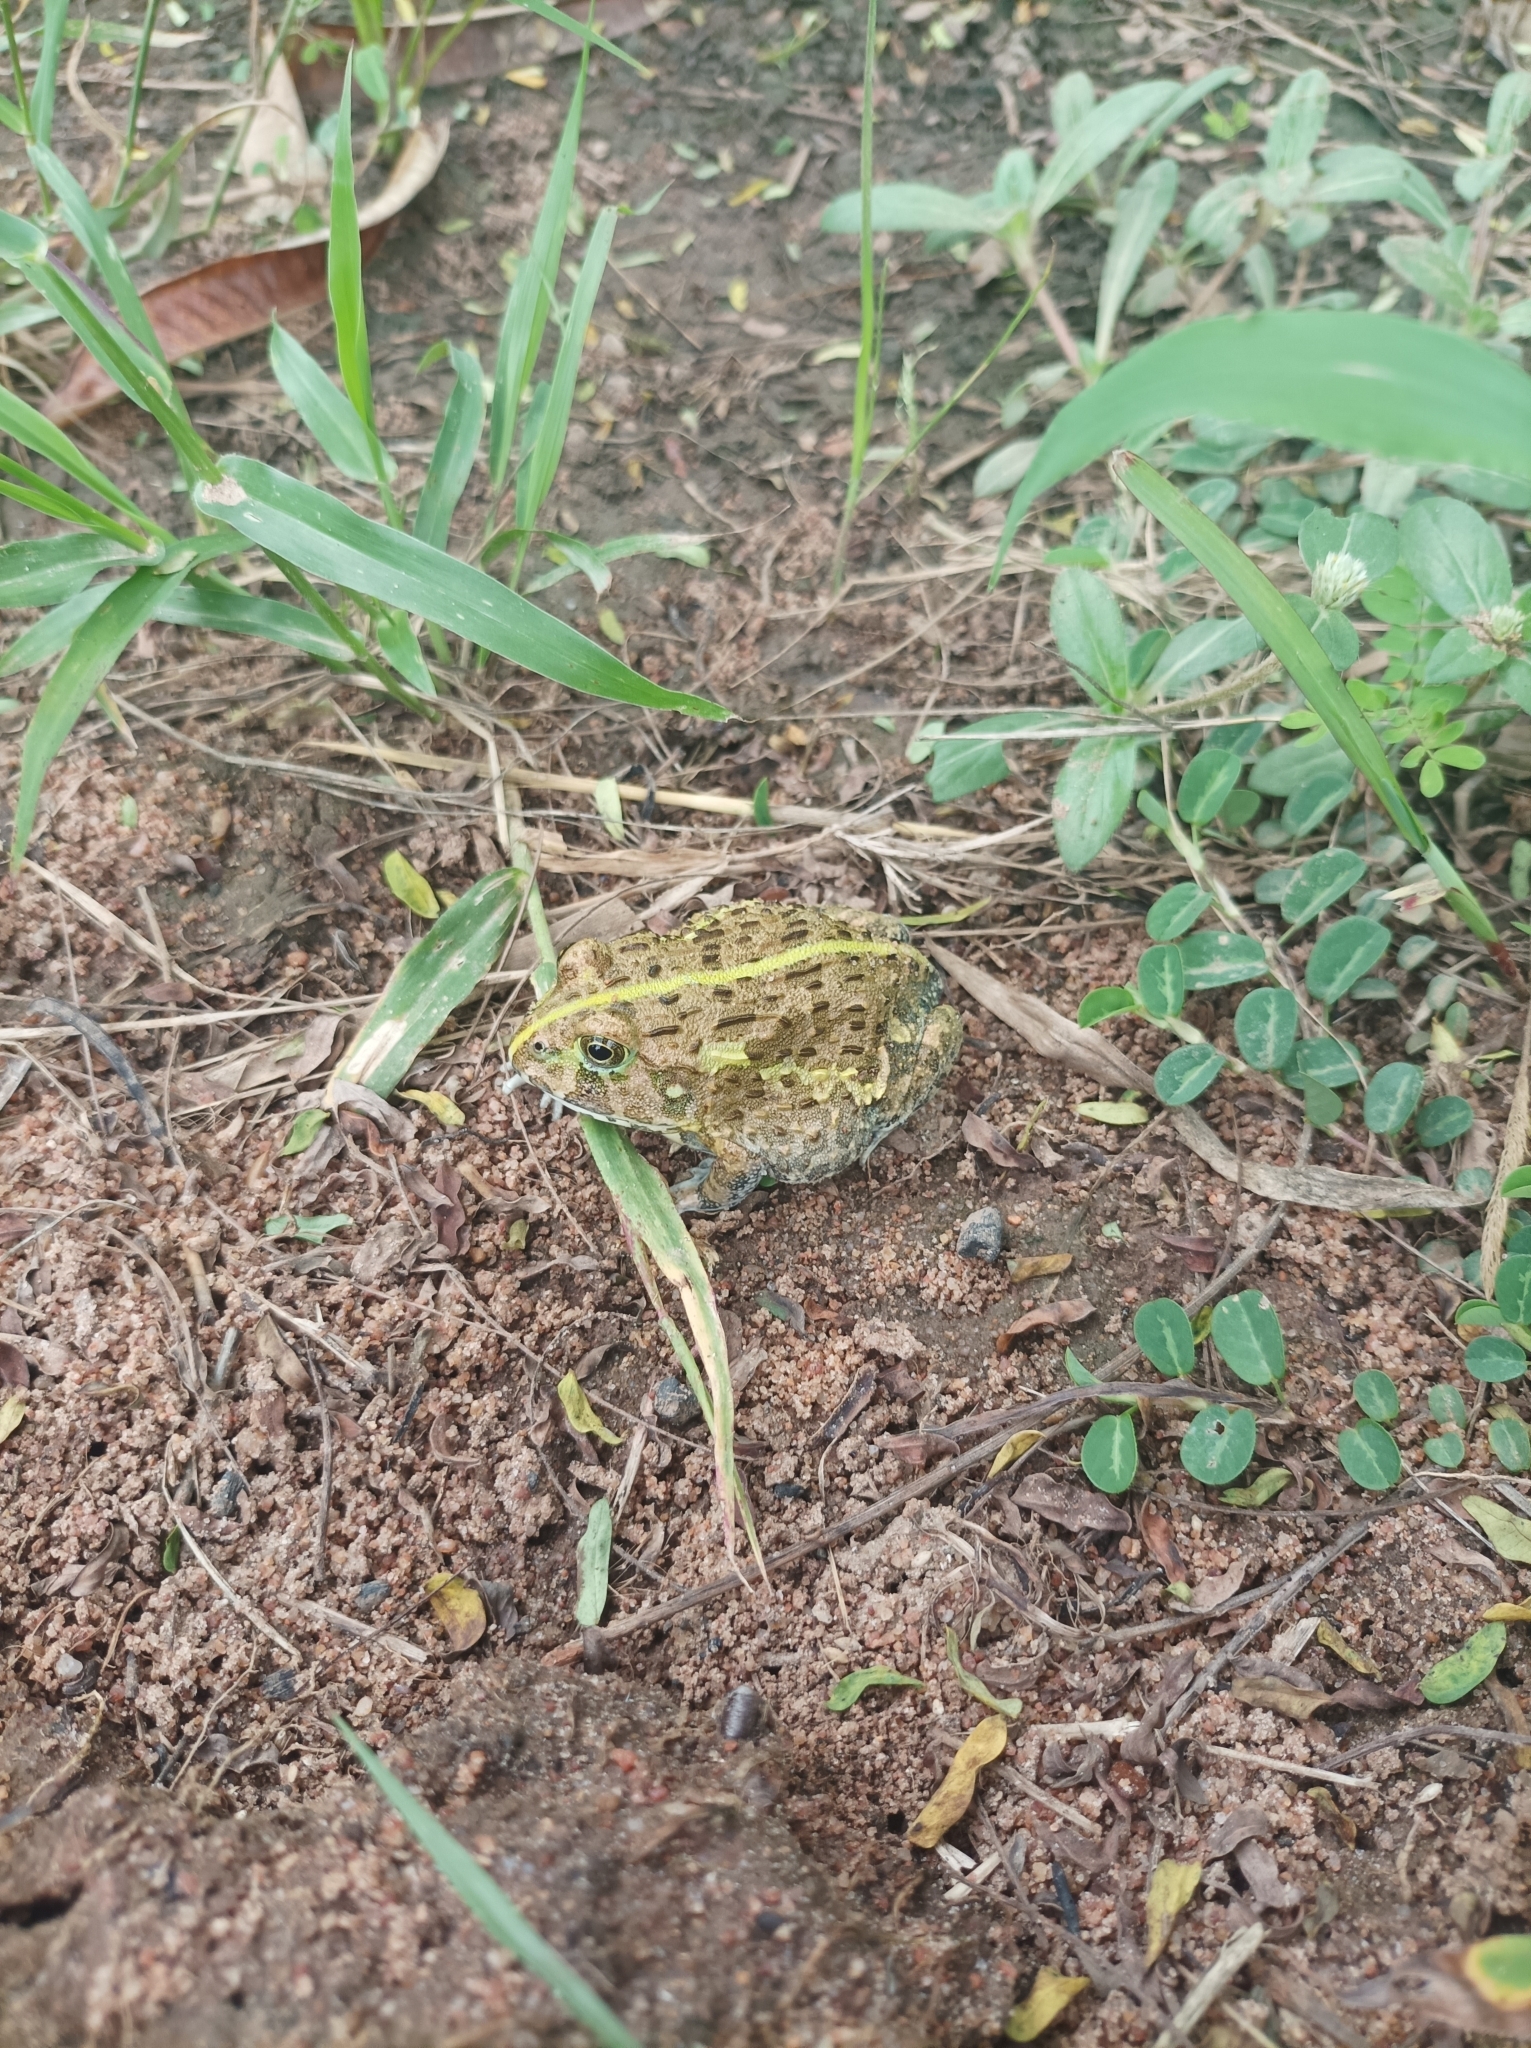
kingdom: Animalia
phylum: Chordata
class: Amphibia
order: Anura
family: Pyxicephalidae
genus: Pyxicephalus
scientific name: Pyxicephalus edulis
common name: Peter's bullfrog
